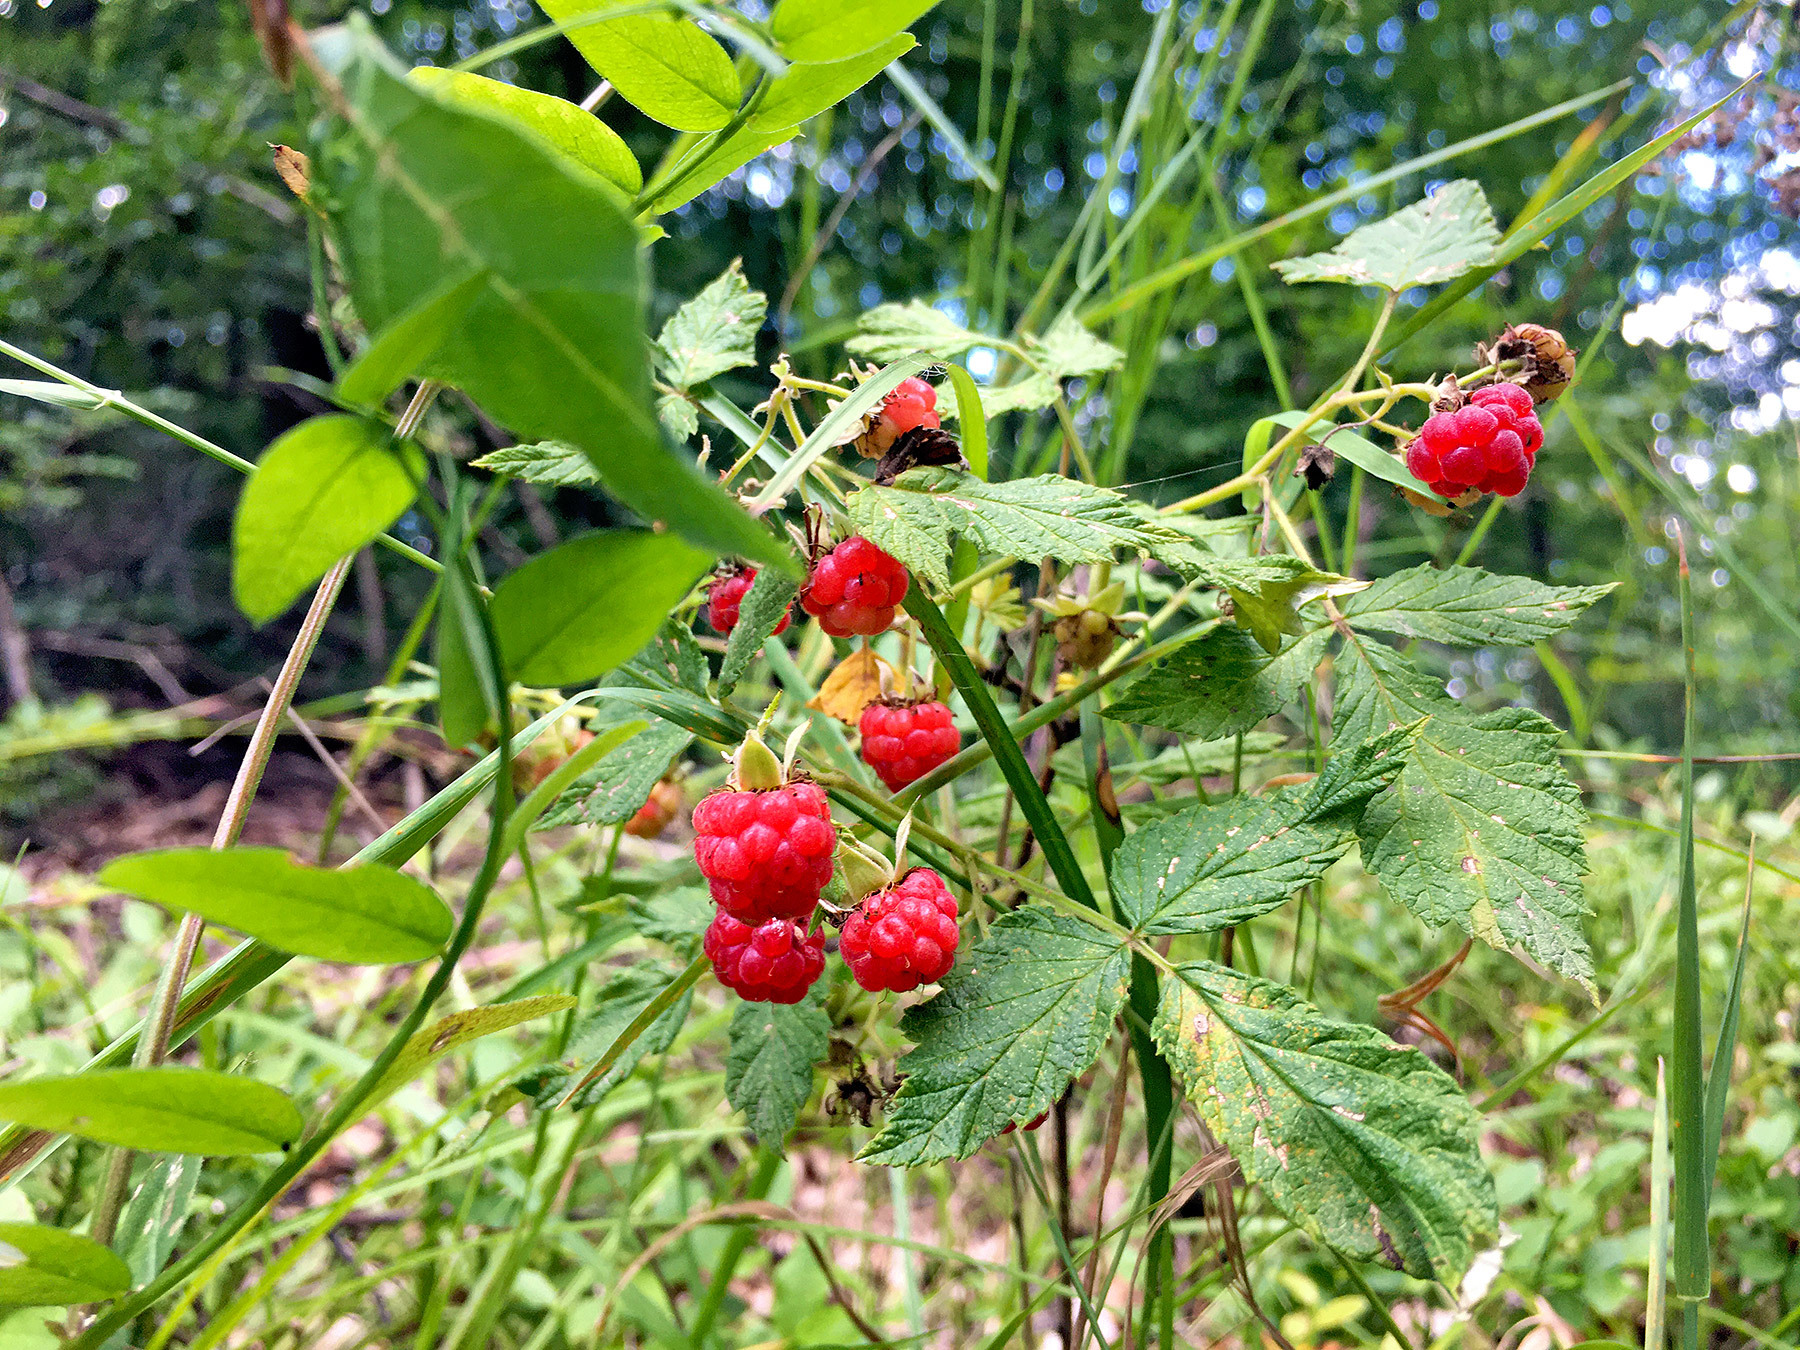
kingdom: Plantae
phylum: Tracheophyta
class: Magnoliopsida
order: Rosales
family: Rosaceae
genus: Rubus
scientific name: Rubus idaeus
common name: Raspberry
